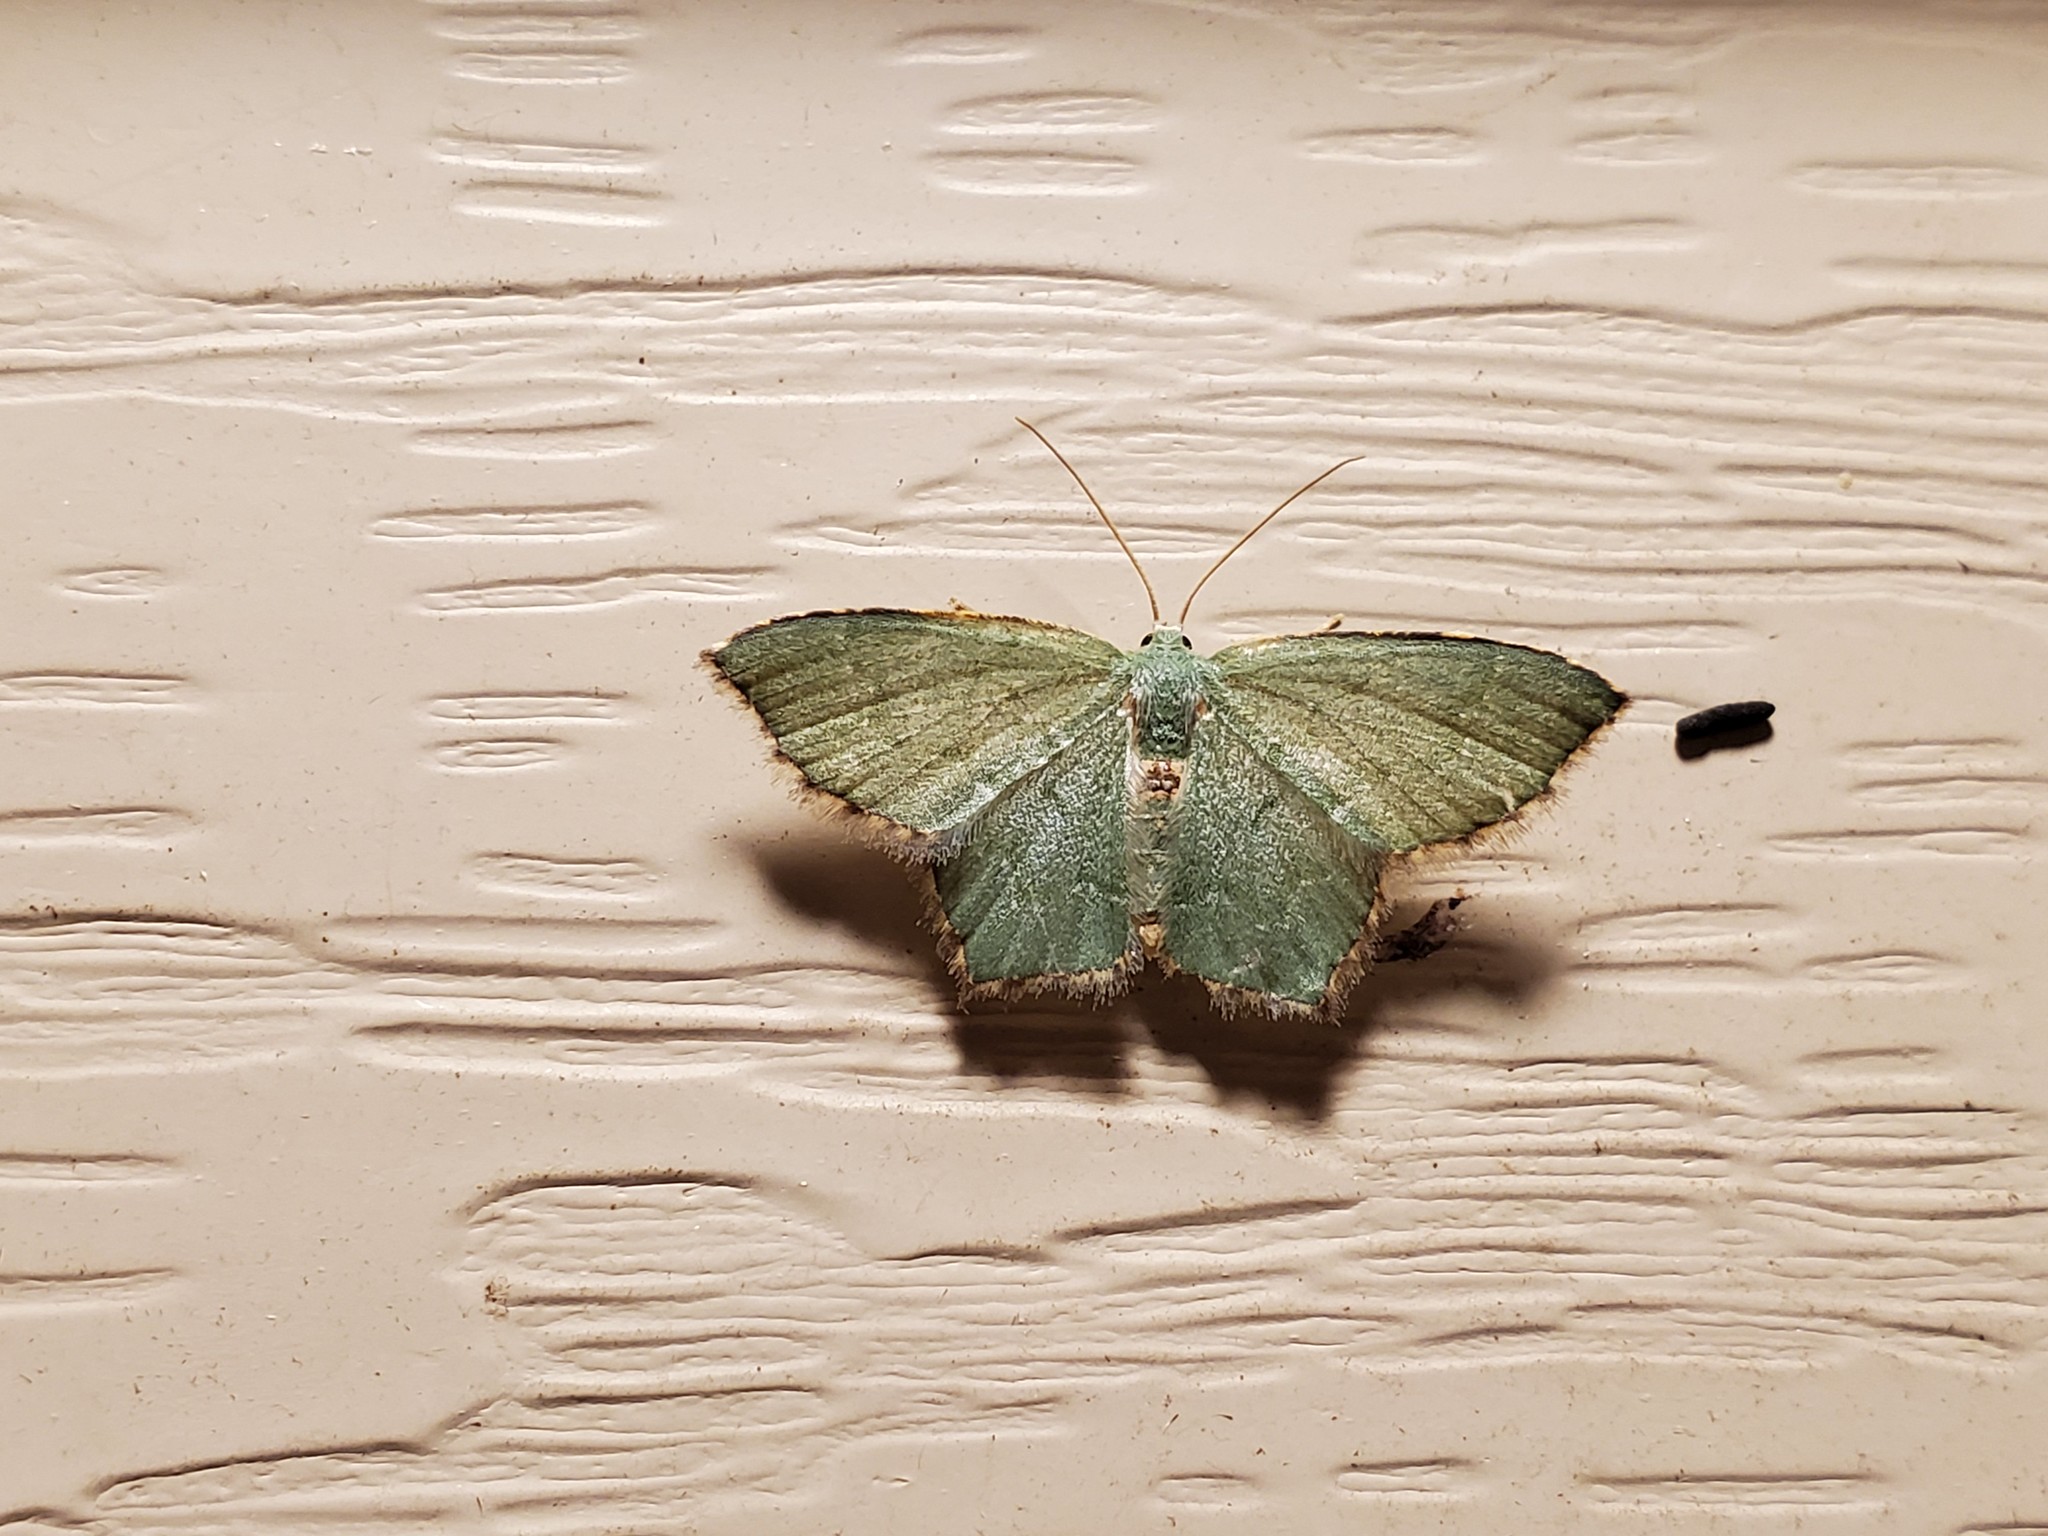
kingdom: Animalia
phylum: Arthropoda
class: Insecta
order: Lepidoptera
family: Geometridae
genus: Chloropteryx
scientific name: Chloropteryx tepperaria
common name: Angle winged emerald moth
